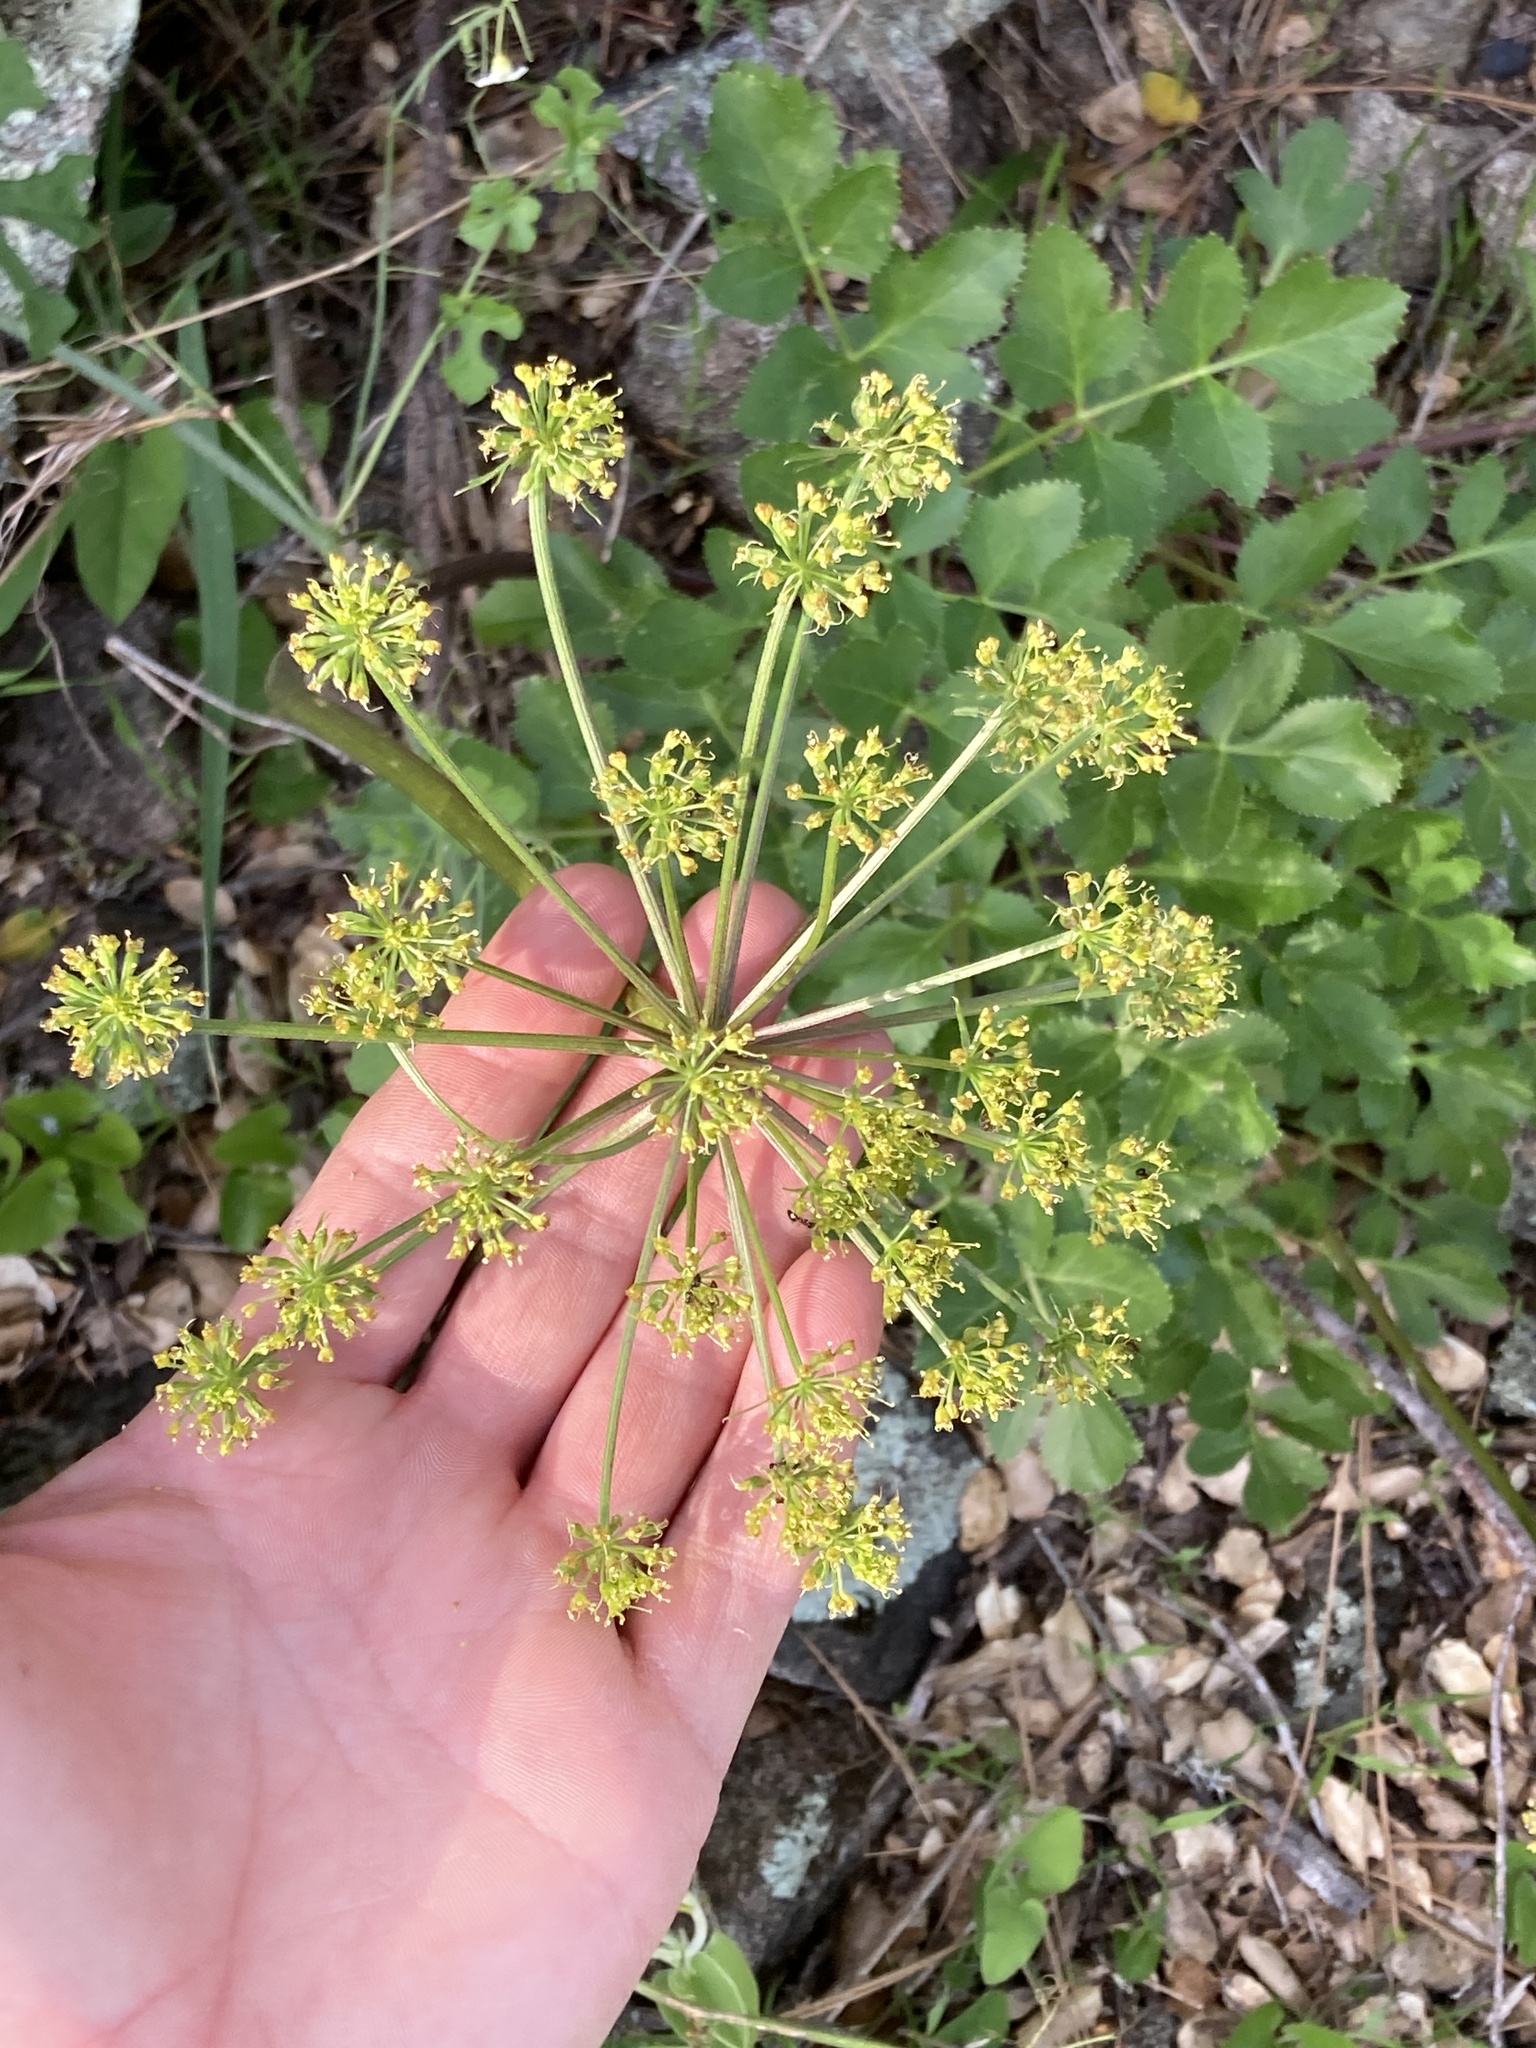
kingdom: Plantae
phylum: Tracheophyta
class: Magnoliopsida
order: Apiales
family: Apiaceae
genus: Tauschia
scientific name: Tauschia hartwegii
